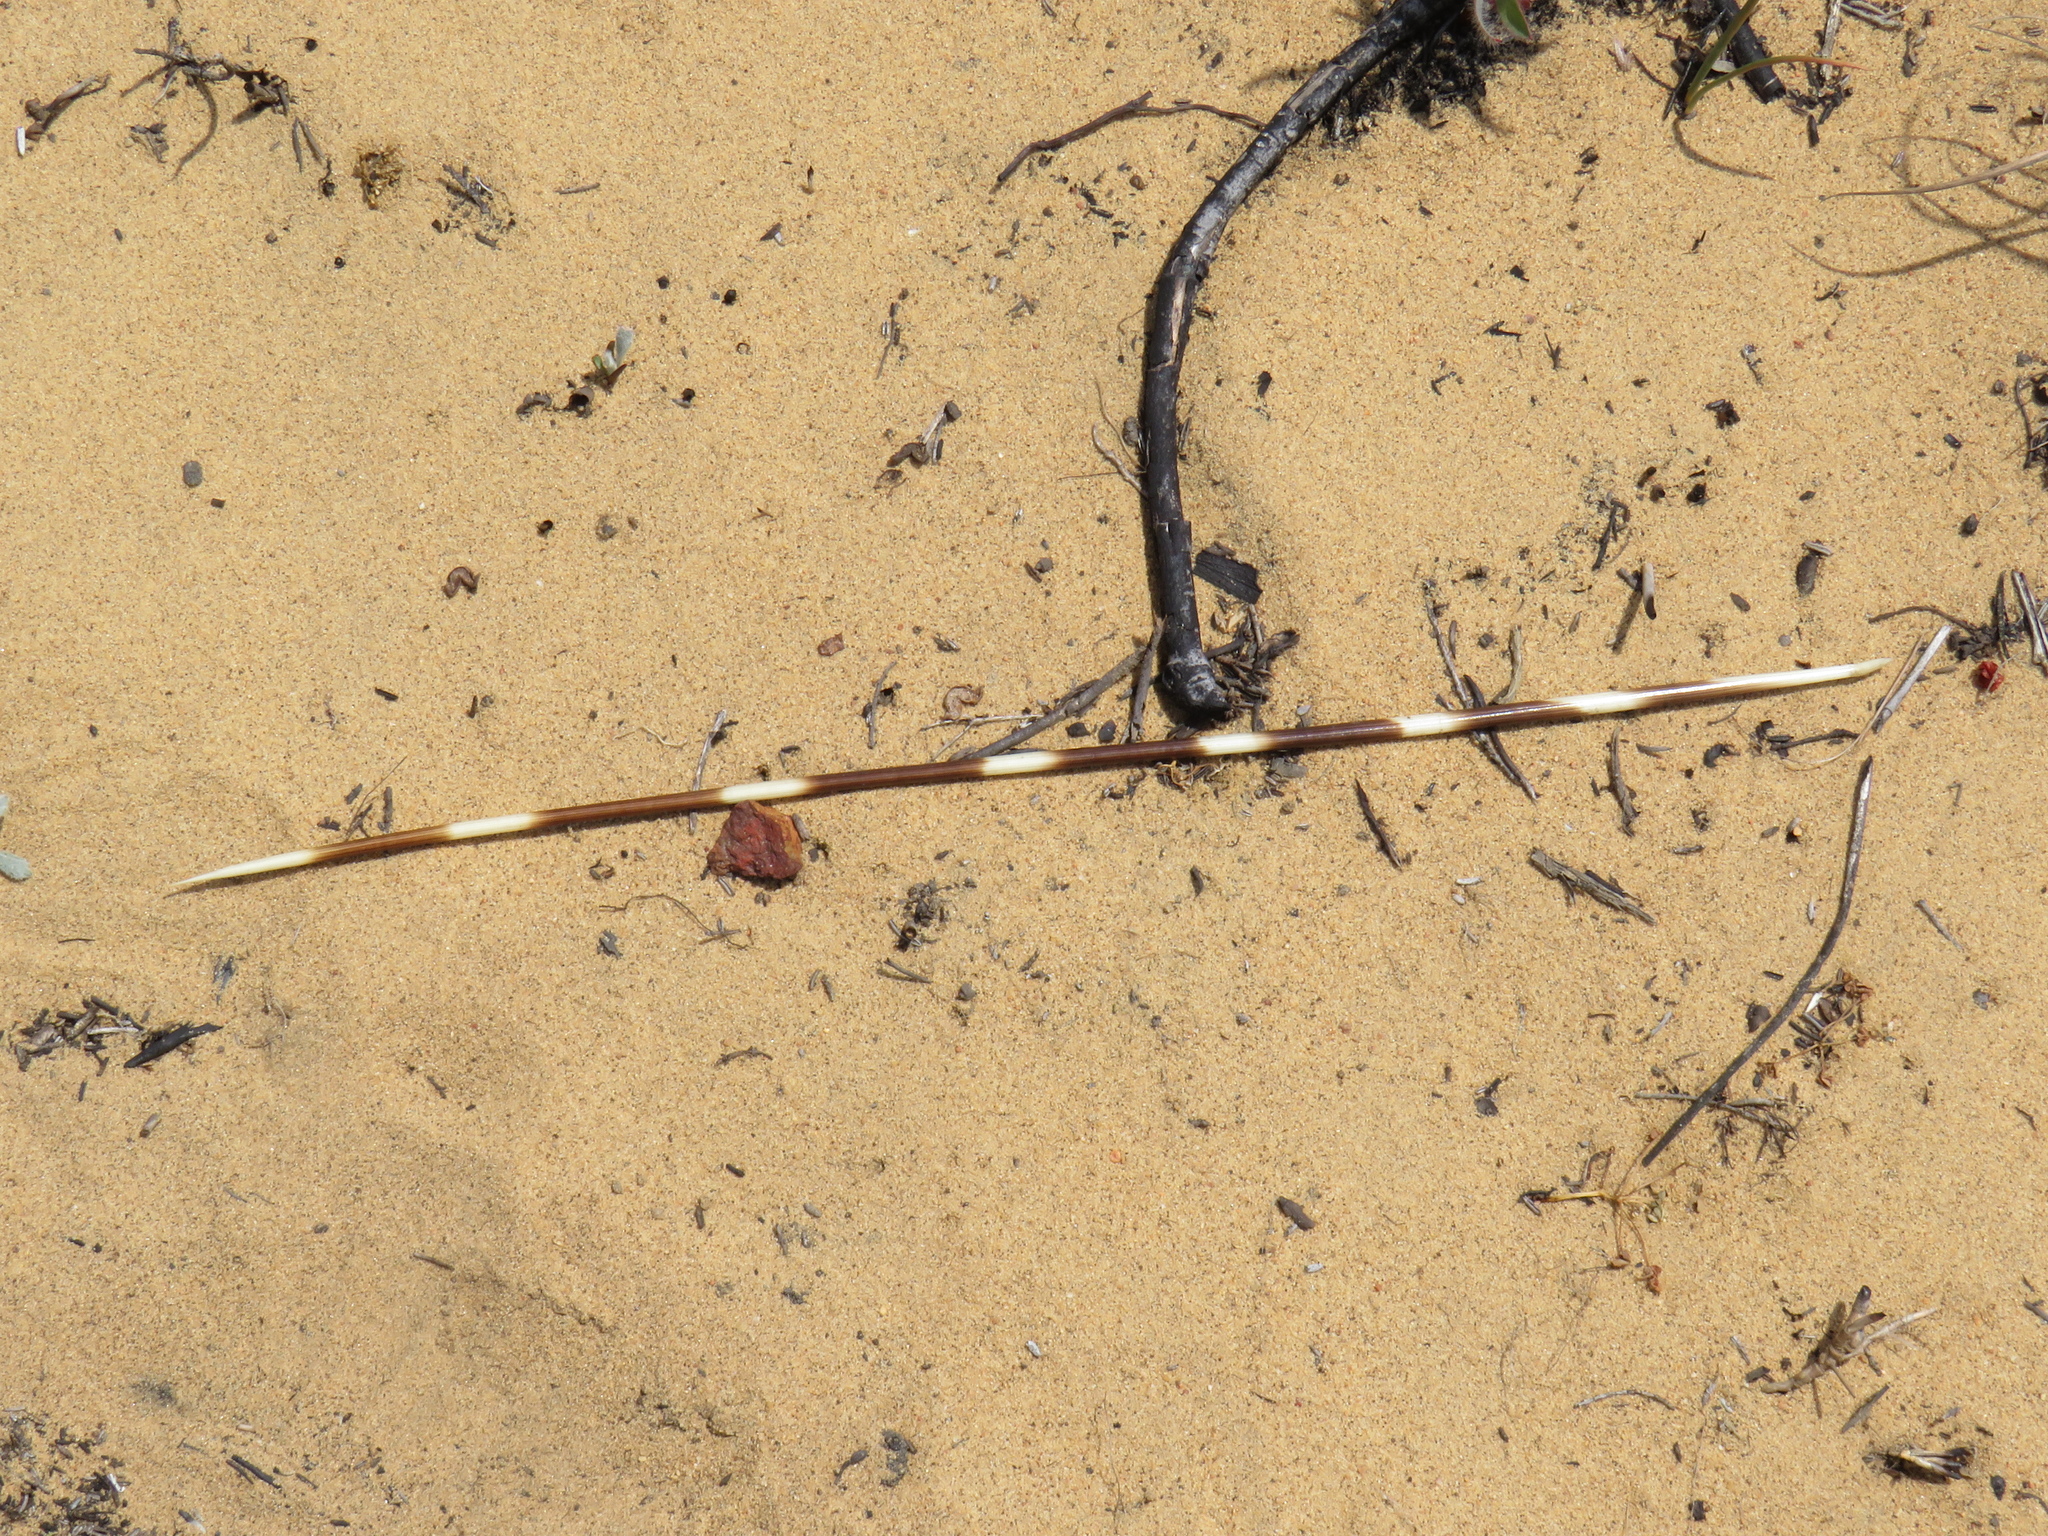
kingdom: Animalia
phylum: Chordata
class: Mammalia
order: Rodentia
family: Hystricidae
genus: Hystrix
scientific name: Hystrix africaeaustralis
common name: Cape porcupine
